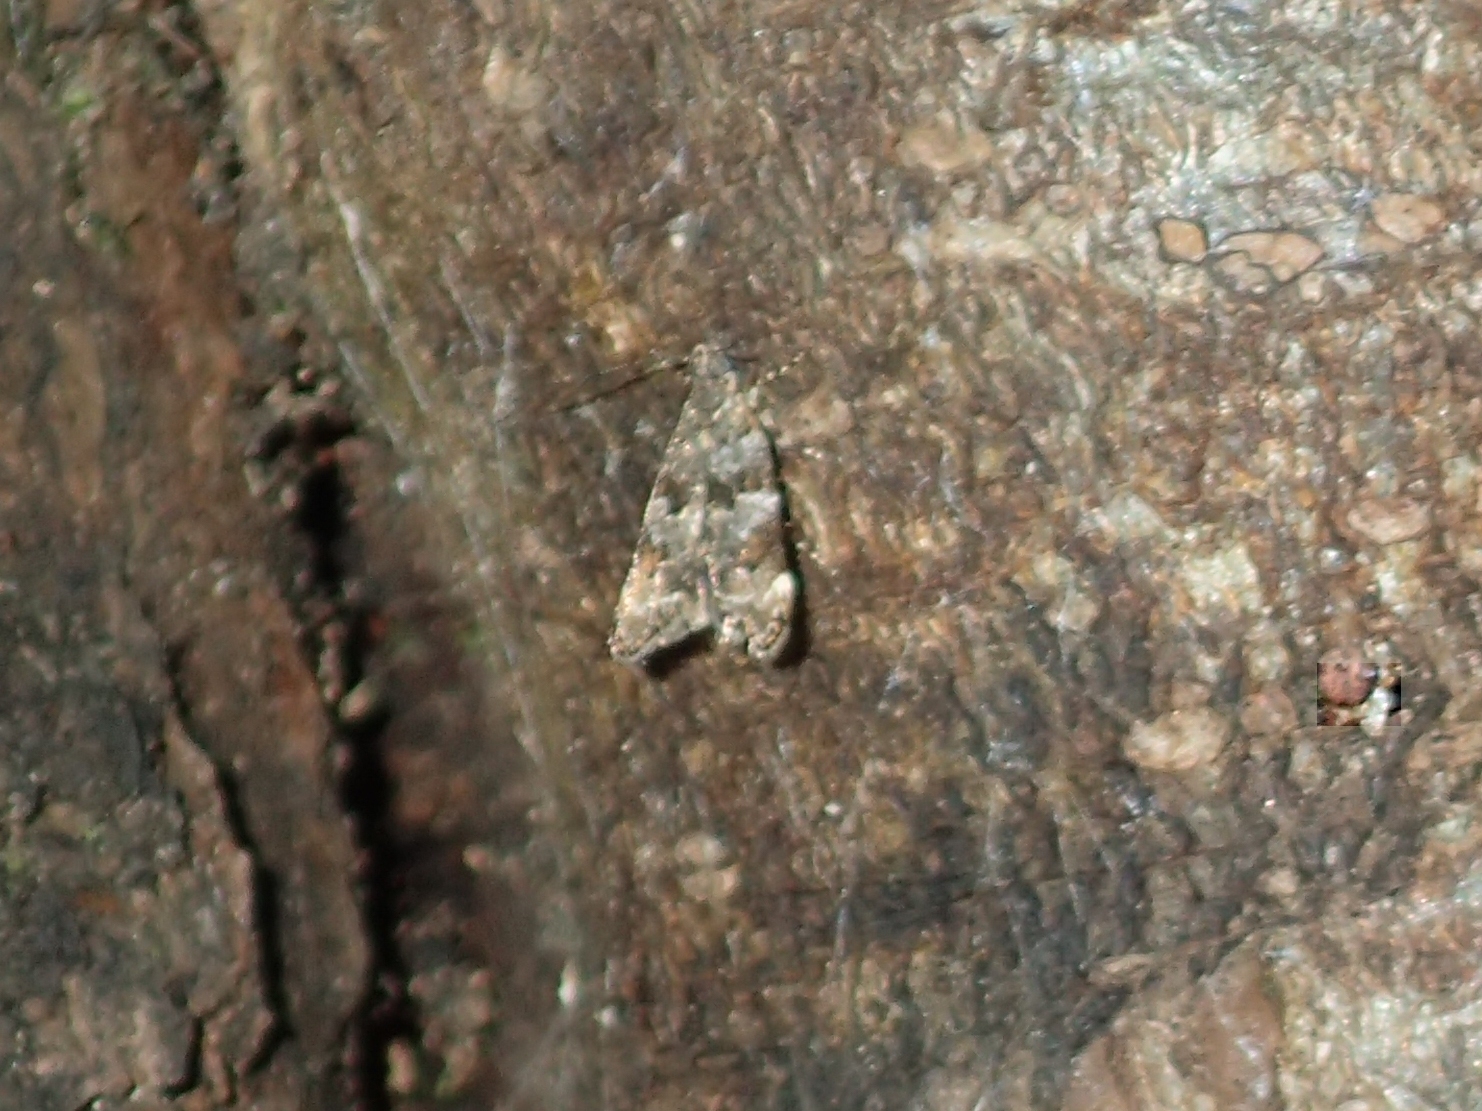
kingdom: Animalia
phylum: Arthropoda
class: Insecta
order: Lepidoptera
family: Oecophoridae
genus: Gymnobathra
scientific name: Gymnobathra omphalota
